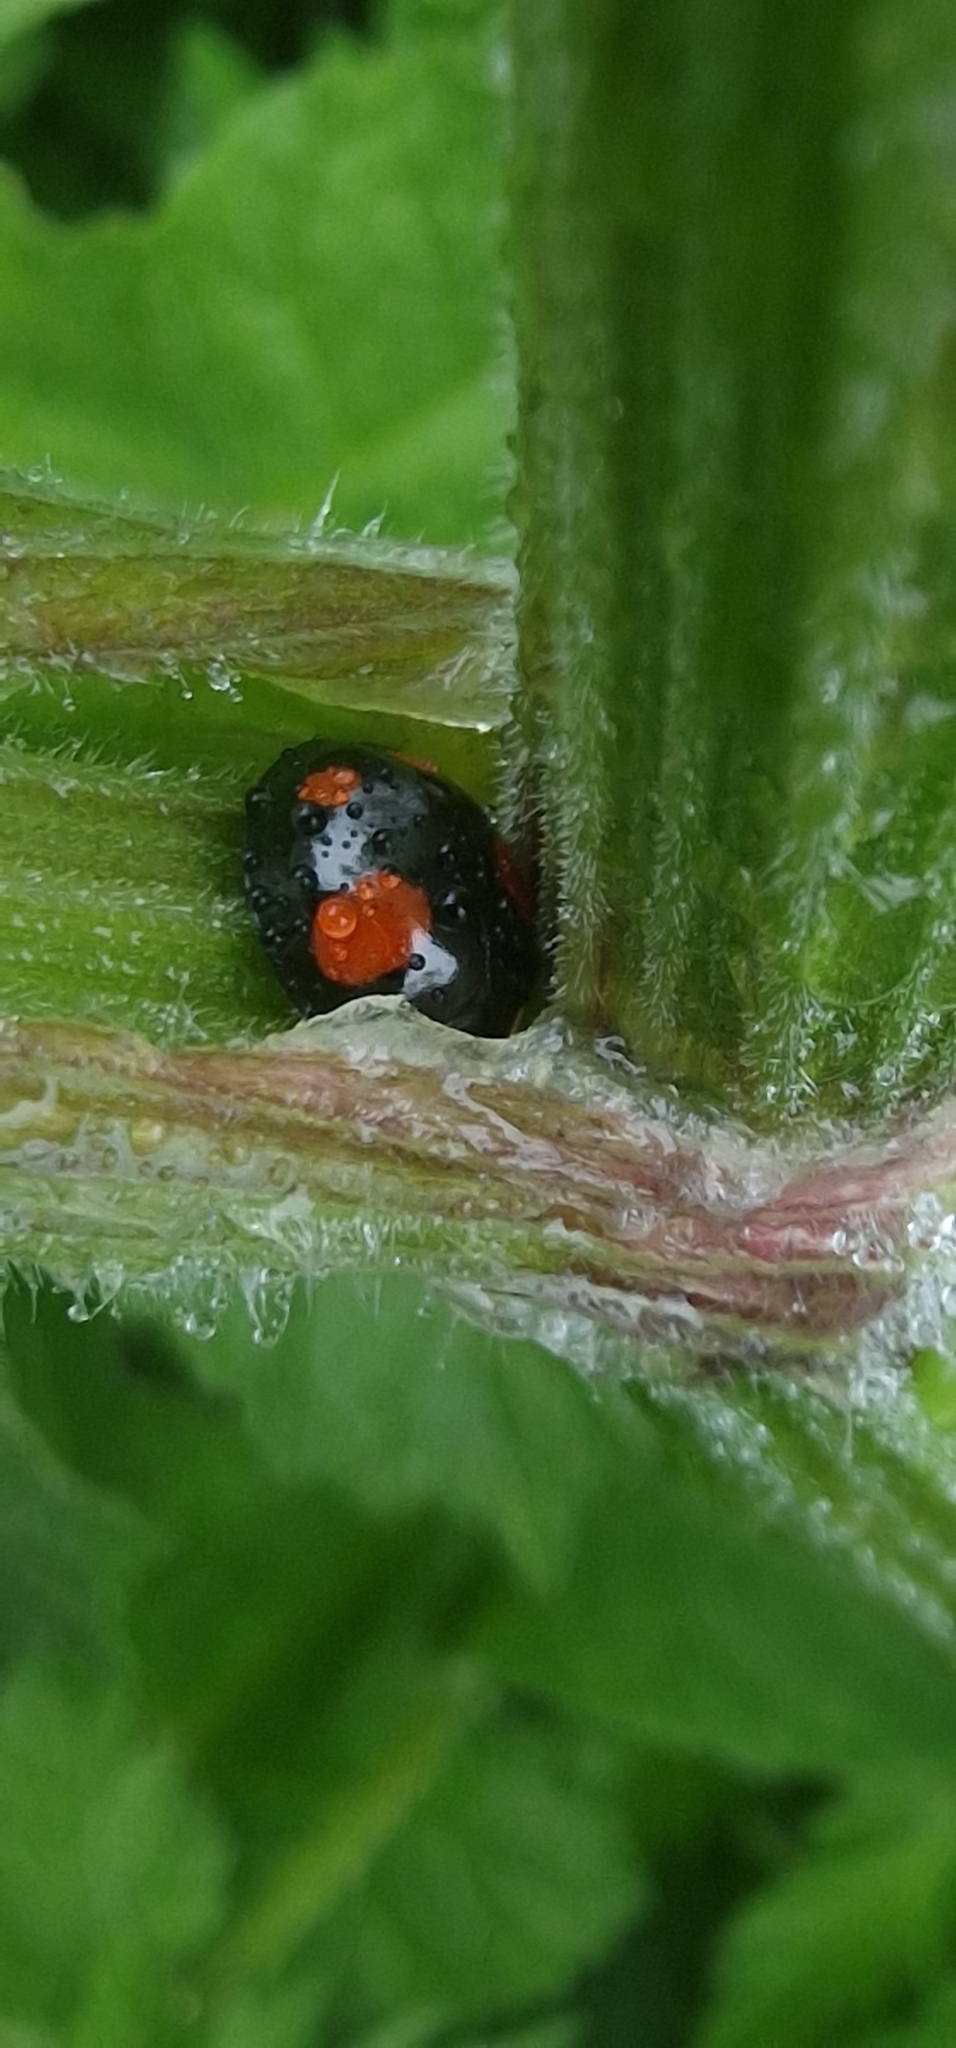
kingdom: Animalia
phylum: Arthropoda
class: Insecta
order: Coleoptera
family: Coccinellidae
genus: Harmonia
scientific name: Harmonia axyridis
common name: Harlequin ladybird
